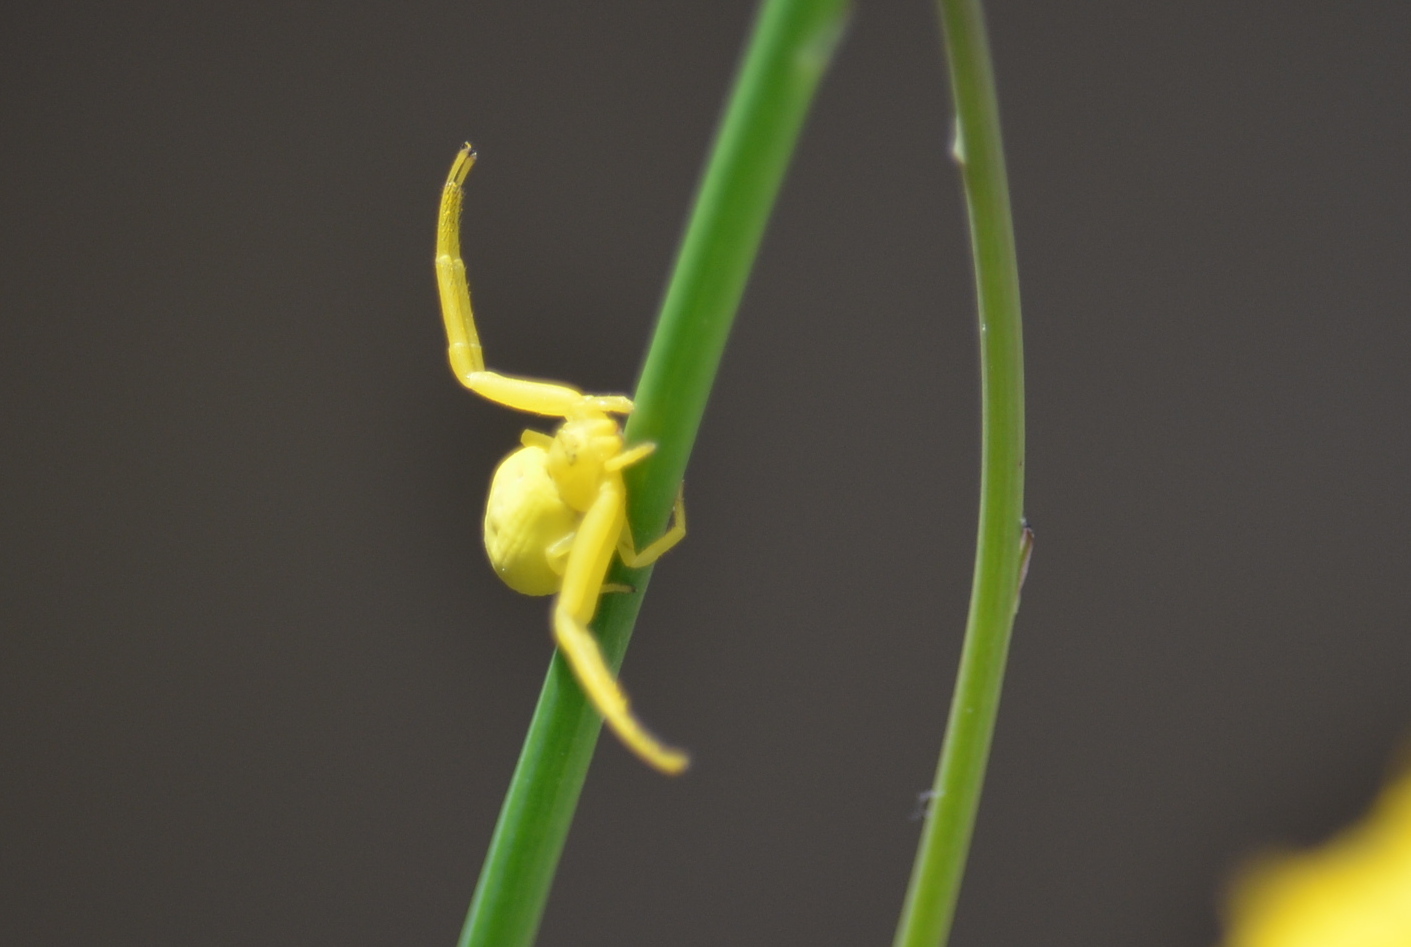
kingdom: Animalia
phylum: Arthropoda
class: Arachnida
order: Araneae
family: Thomisidae
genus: Misumena
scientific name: Misumena vatia
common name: Goldenrod crab spider
